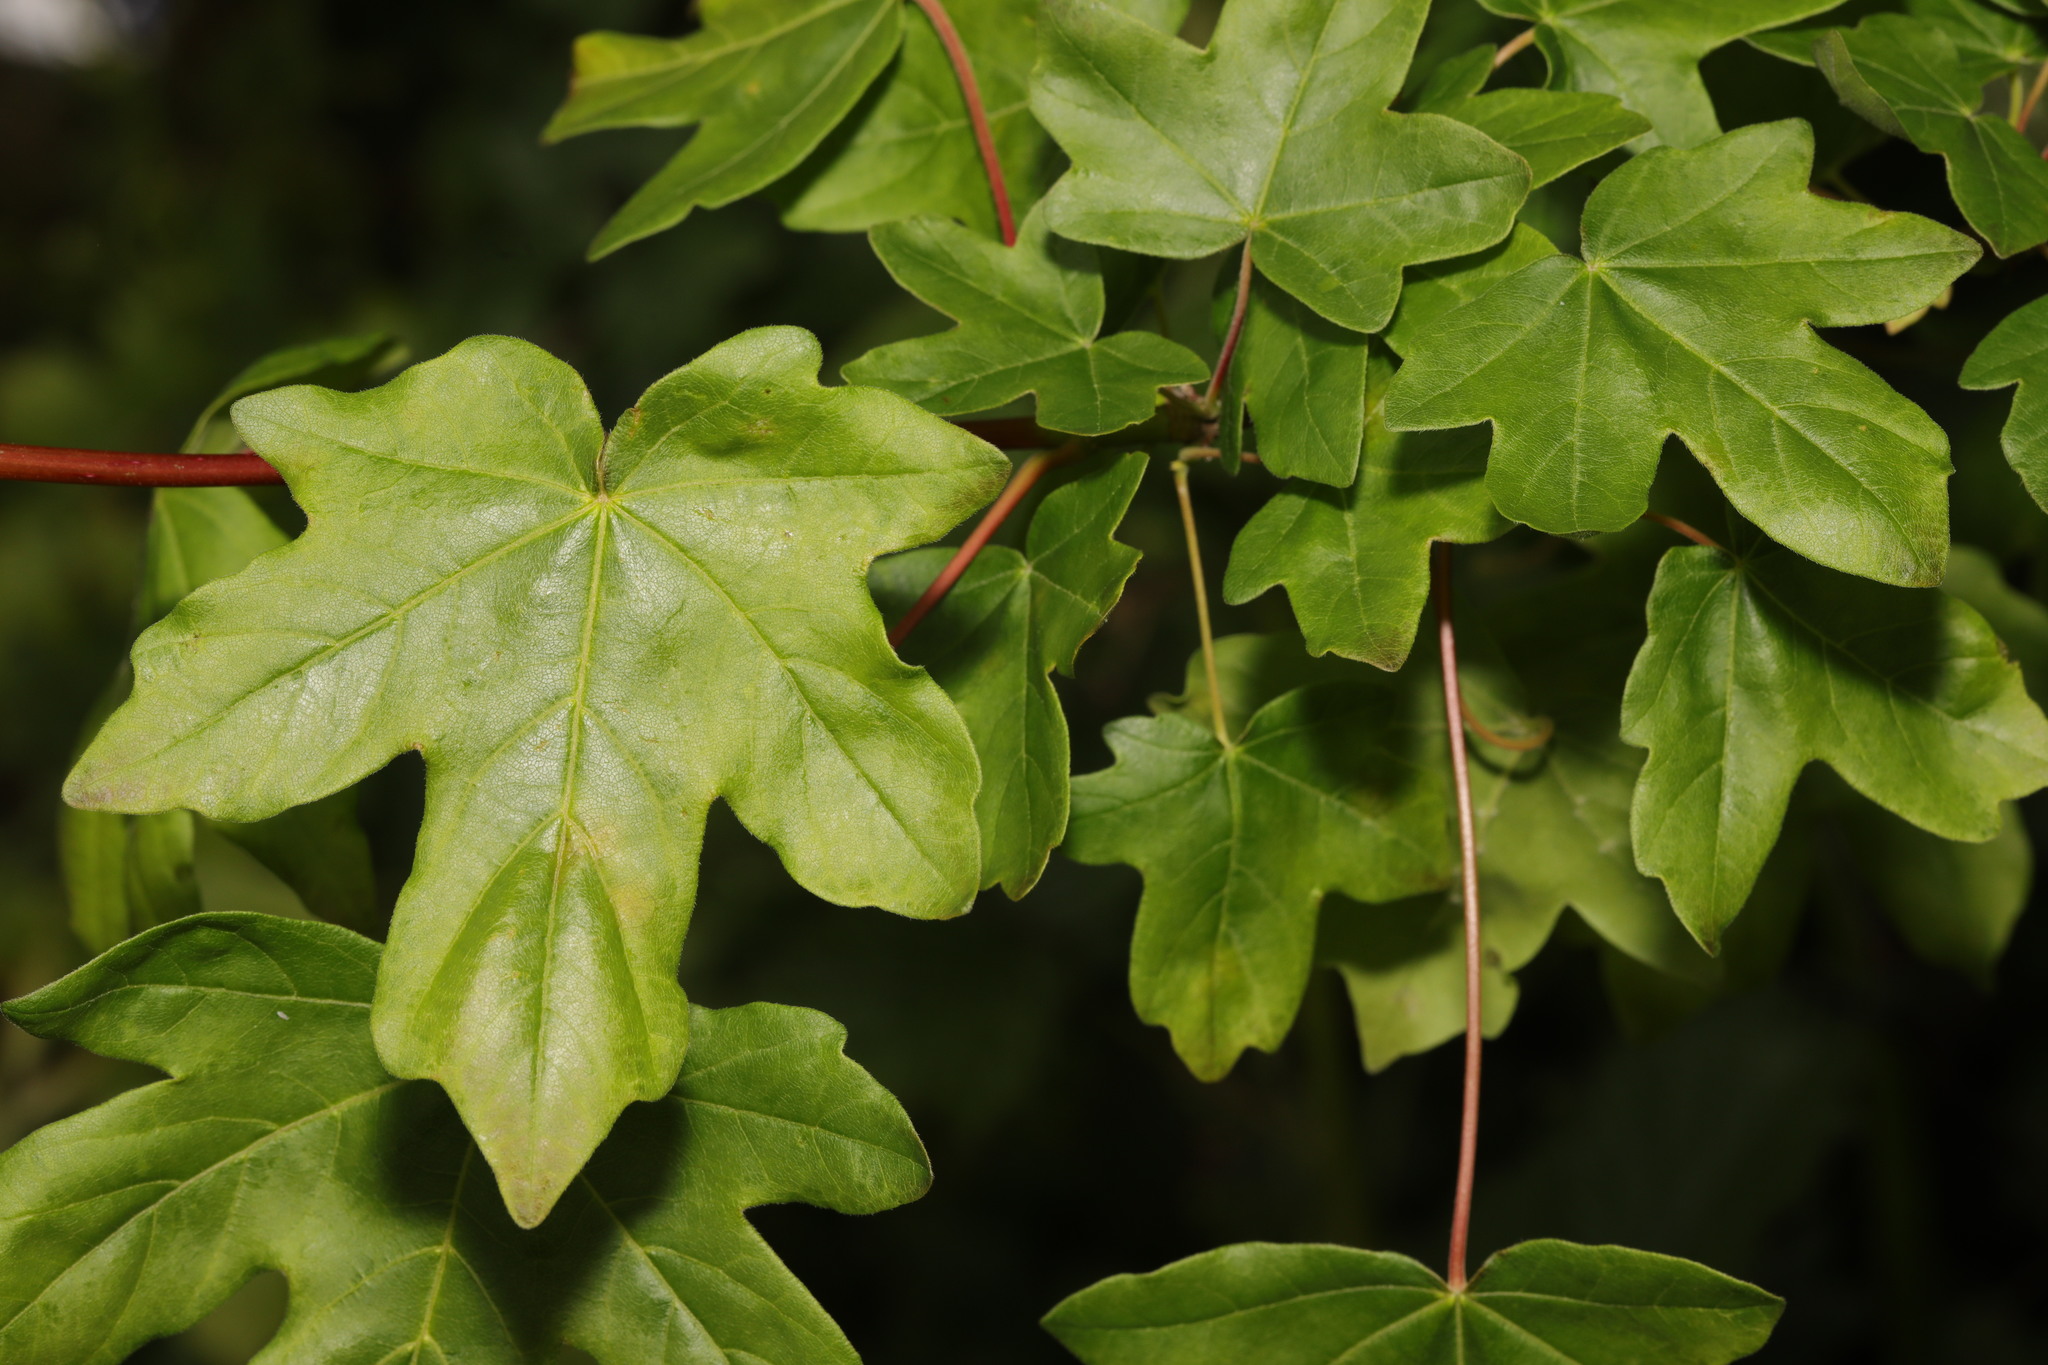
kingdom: Plantae
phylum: Tracheophyta
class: Magnoliopsida
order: Sapindales
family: Sapindaceae
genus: Acer
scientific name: Acer campestre
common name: Field maple
